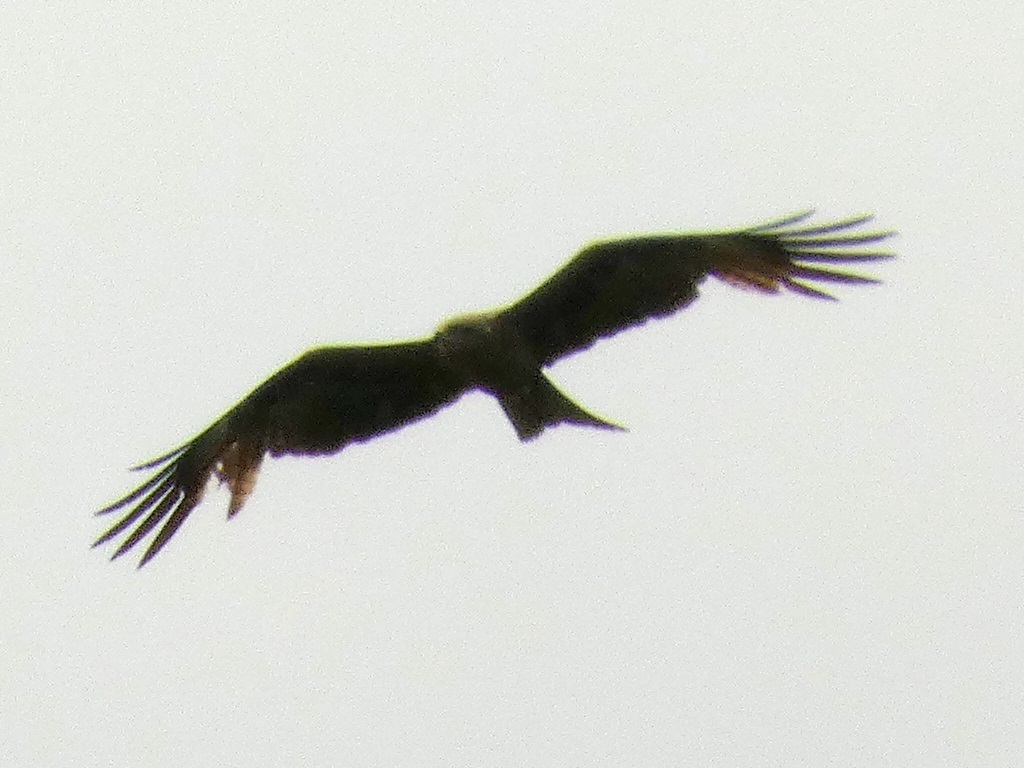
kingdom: Animalia
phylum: Chordata
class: Aves
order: Accipitriformes
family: Accipitridae
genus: Milvus
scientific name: Milvus migrans
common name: Black kite
